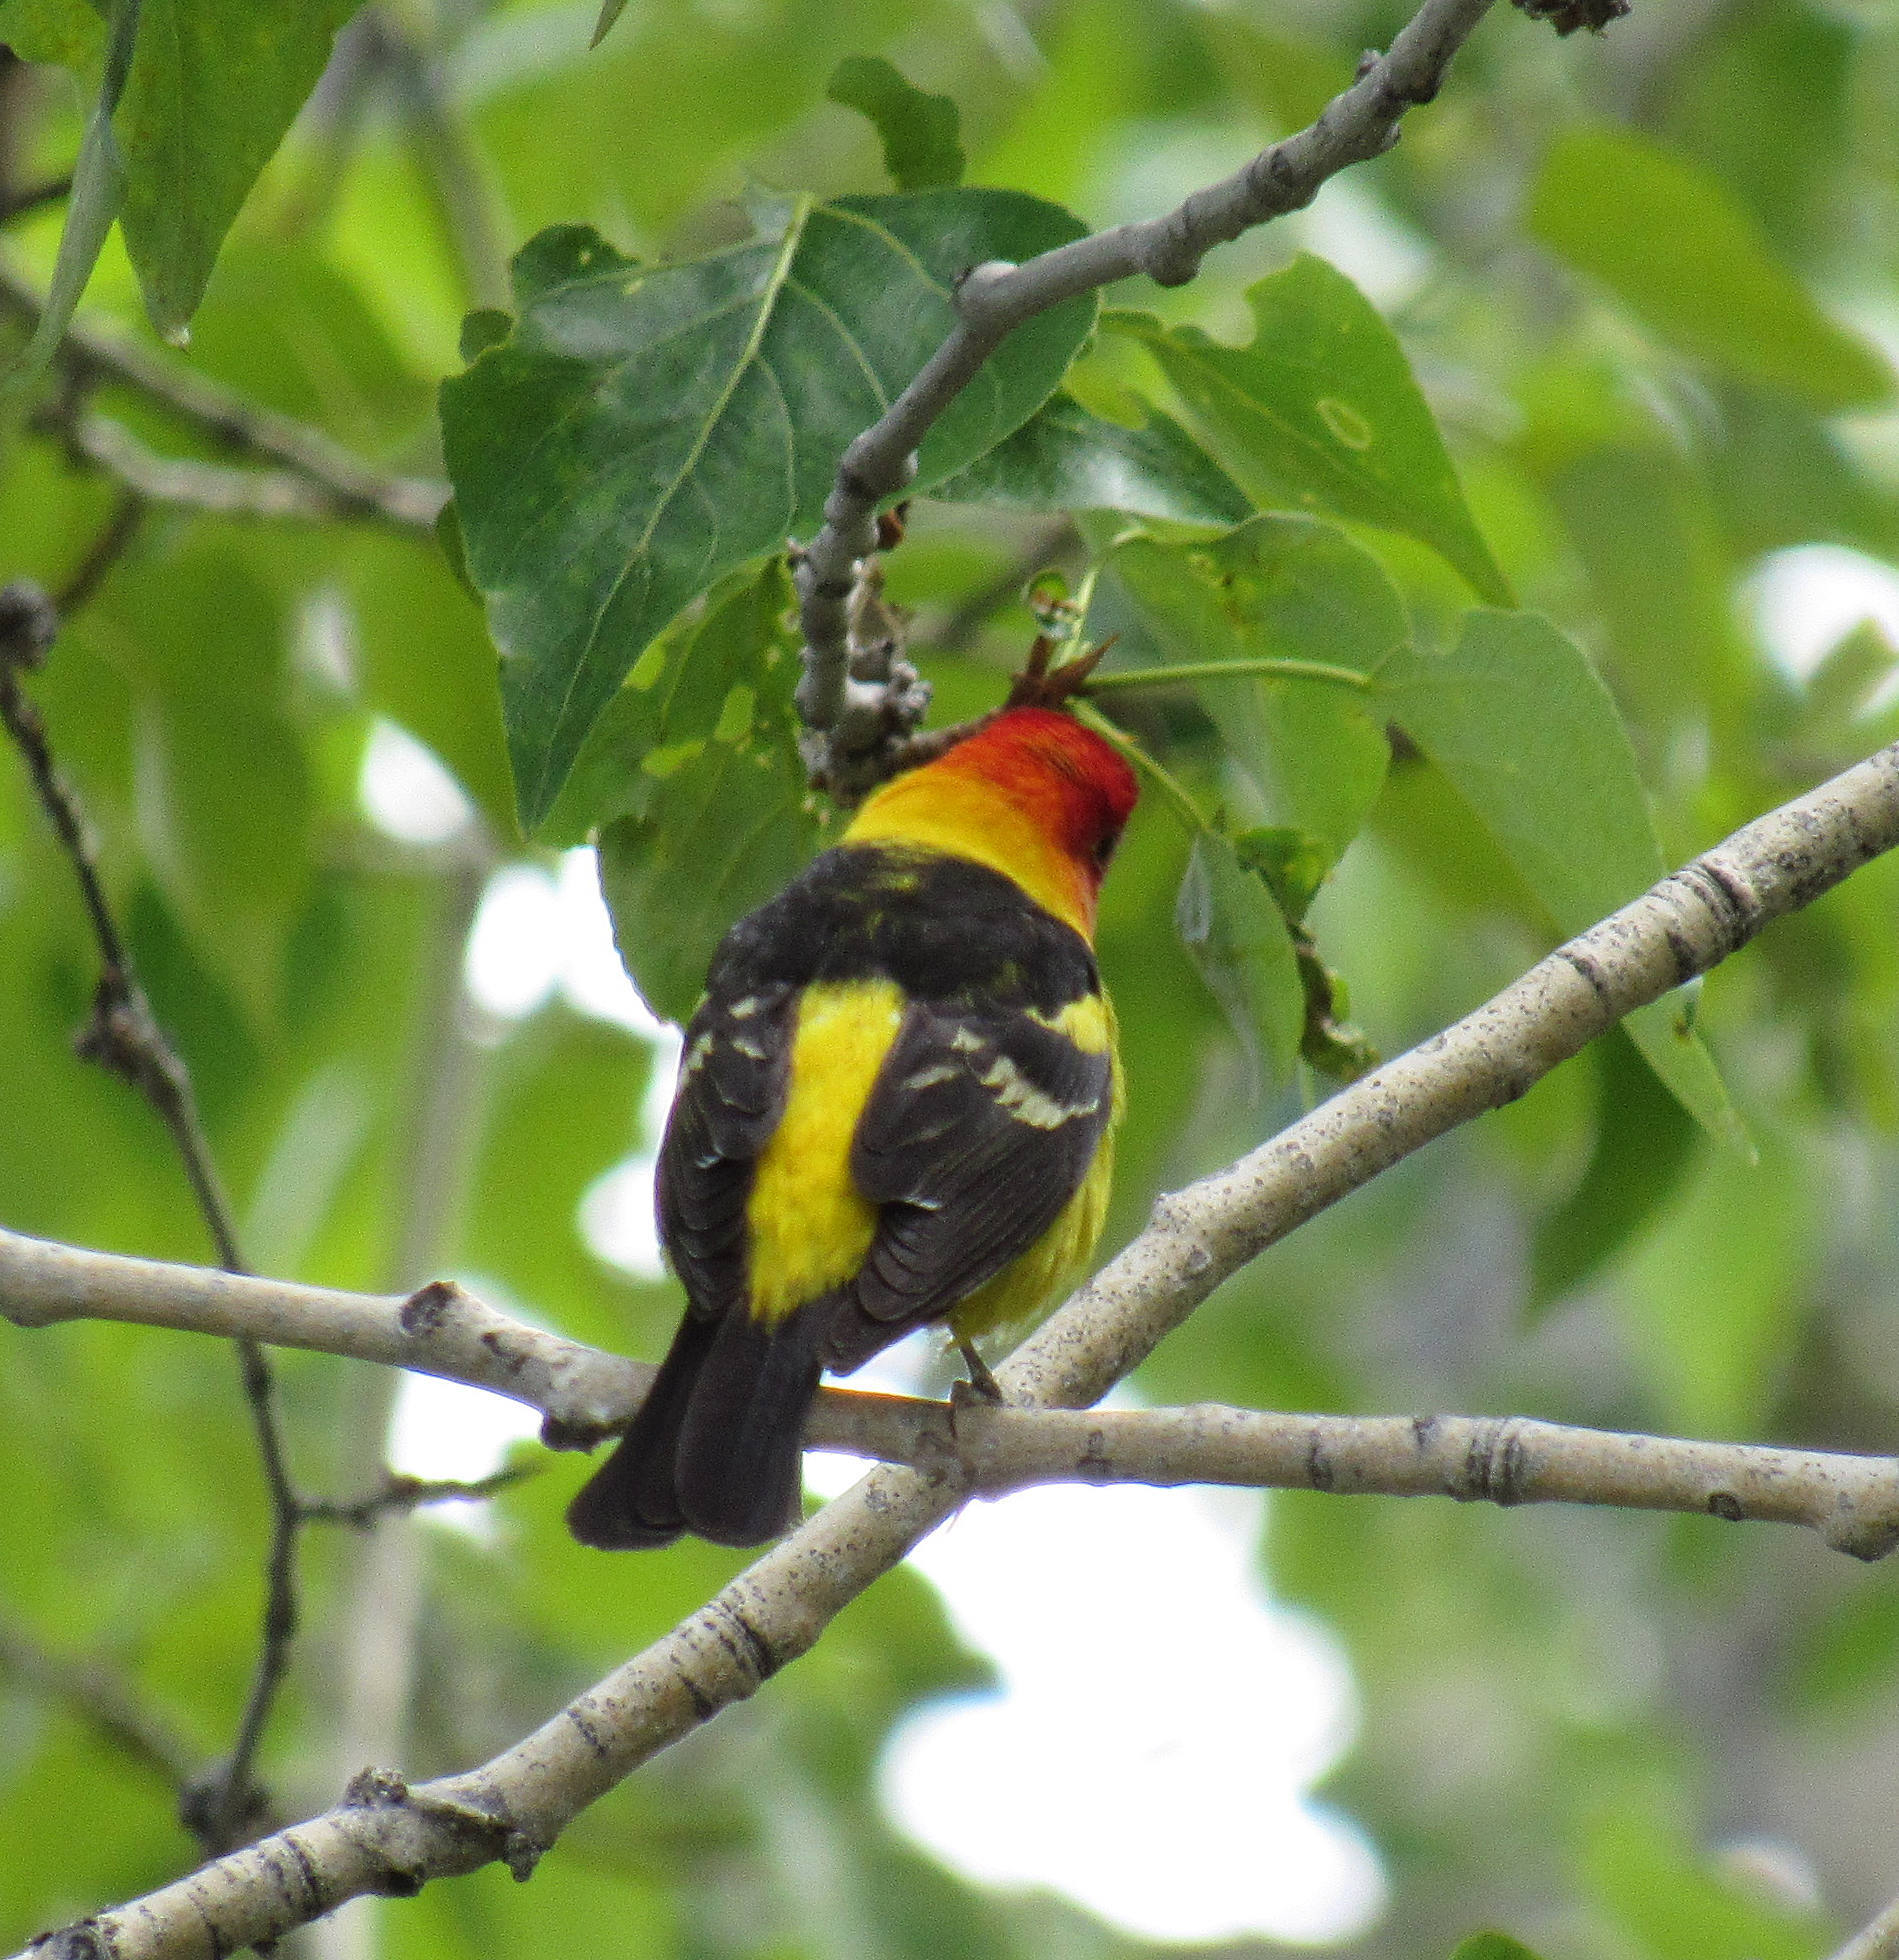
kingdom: Animalia
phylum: Chordata
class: Aves
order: Passeriformes
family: Cardinalidae
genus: Piranga
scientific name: Piranga ludoviciana
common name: Western tanager
